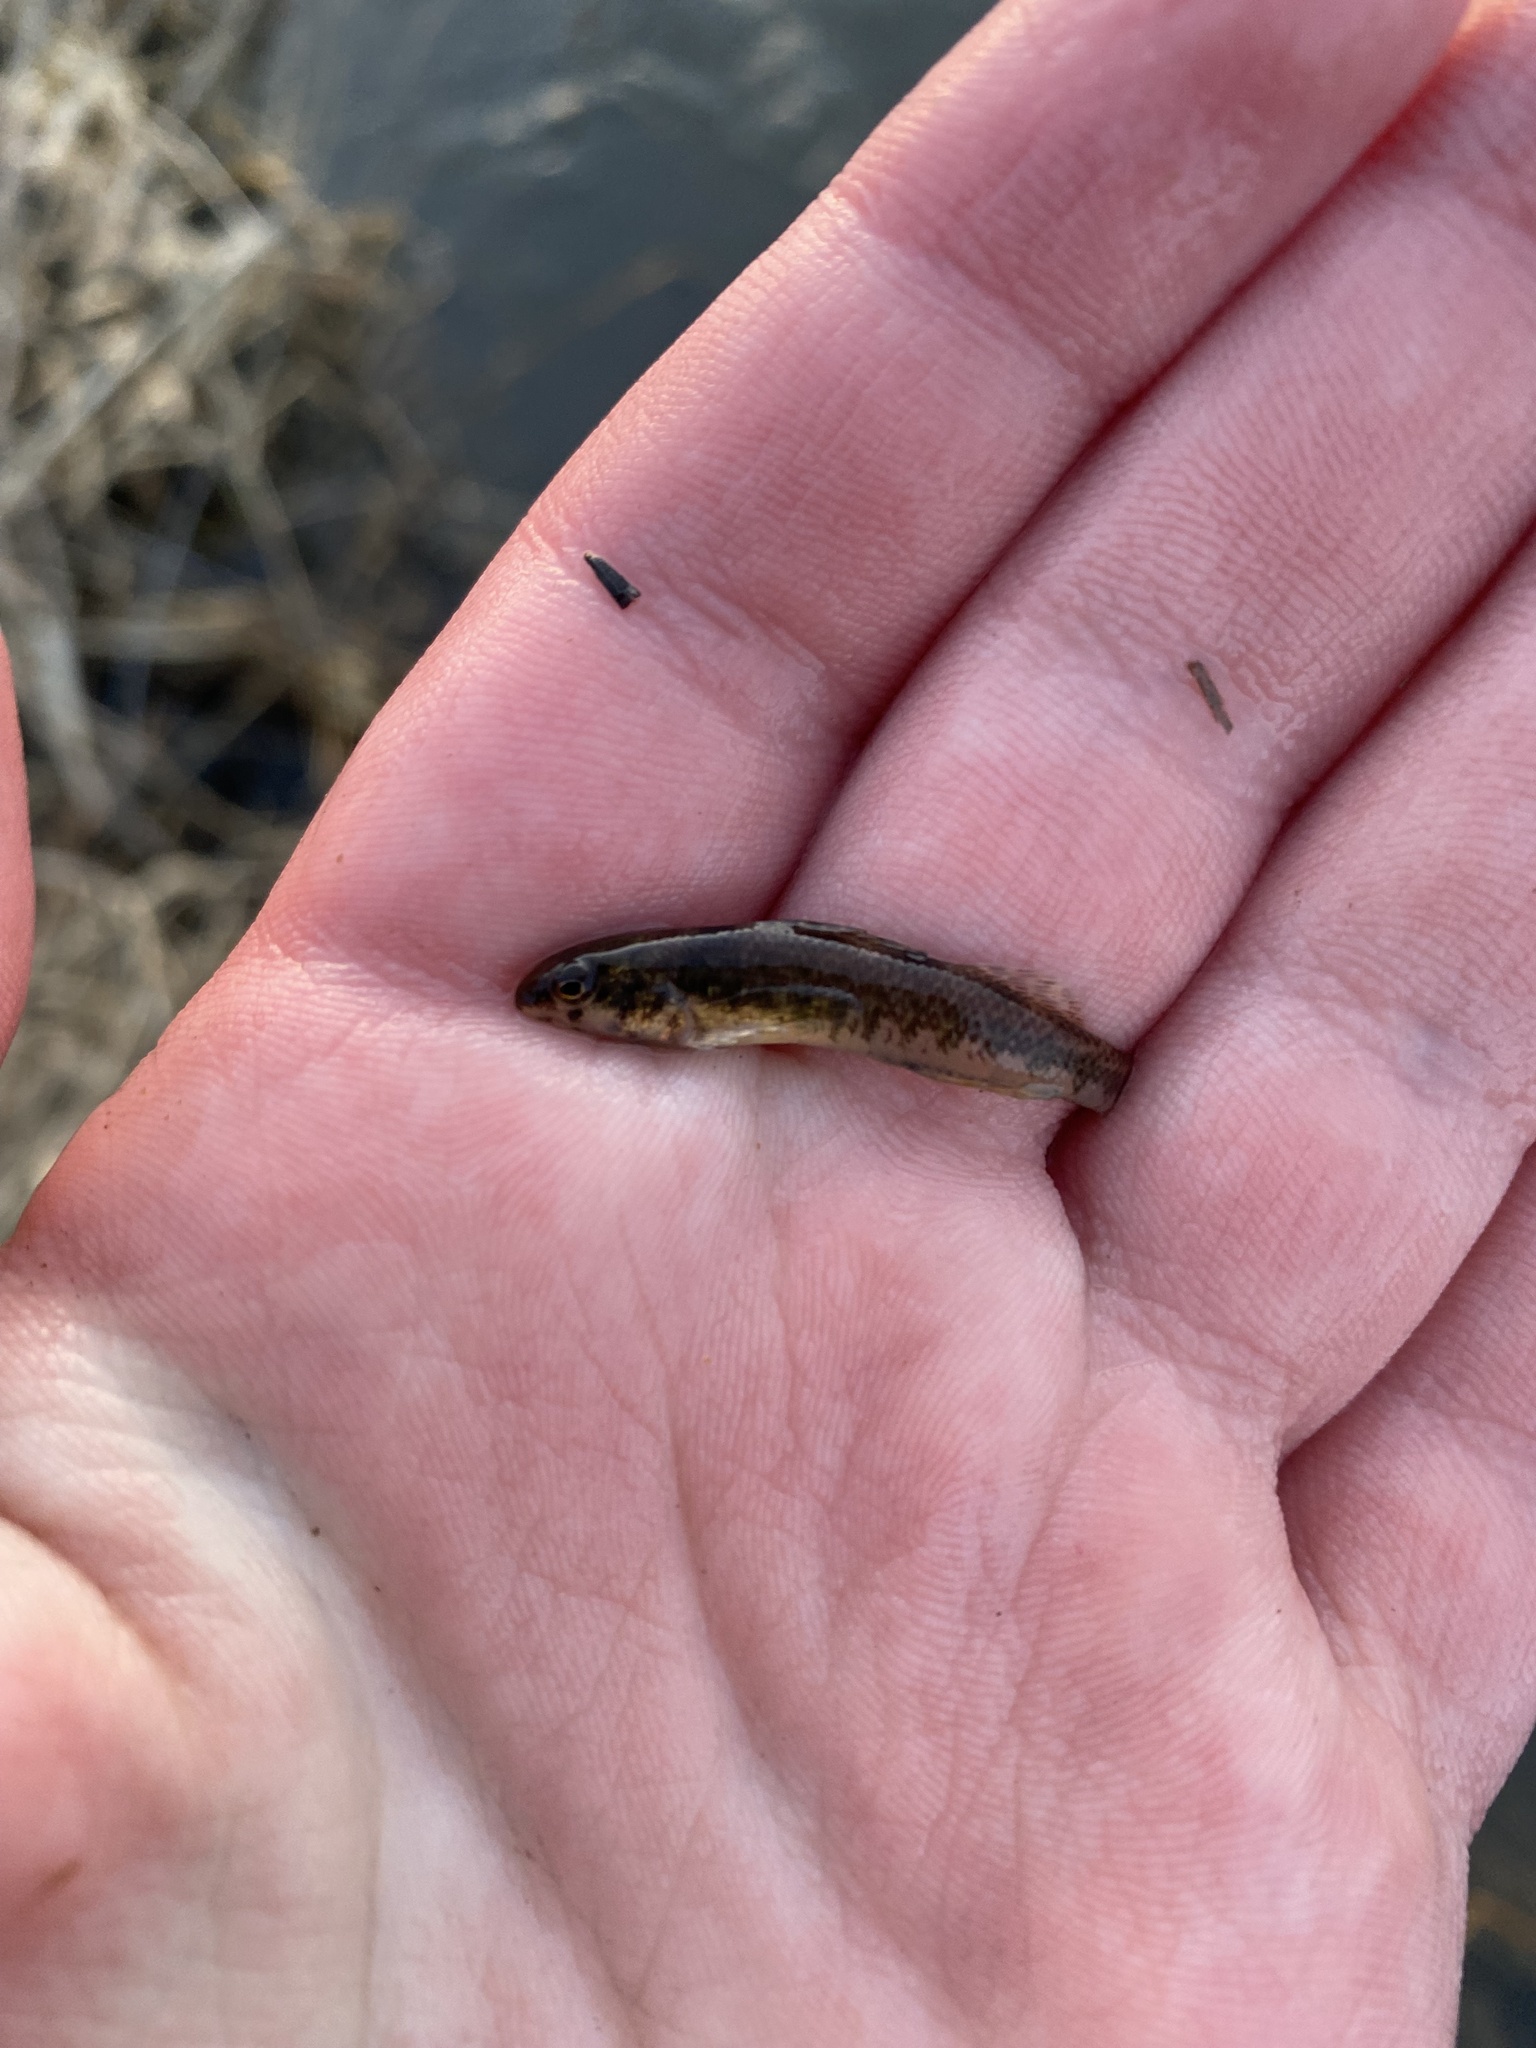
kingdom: Animalia
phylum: Chordata
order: Perciformes
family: Percidae
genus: Etheostoma
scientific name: Etheostoma zonale
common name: Banded darter
